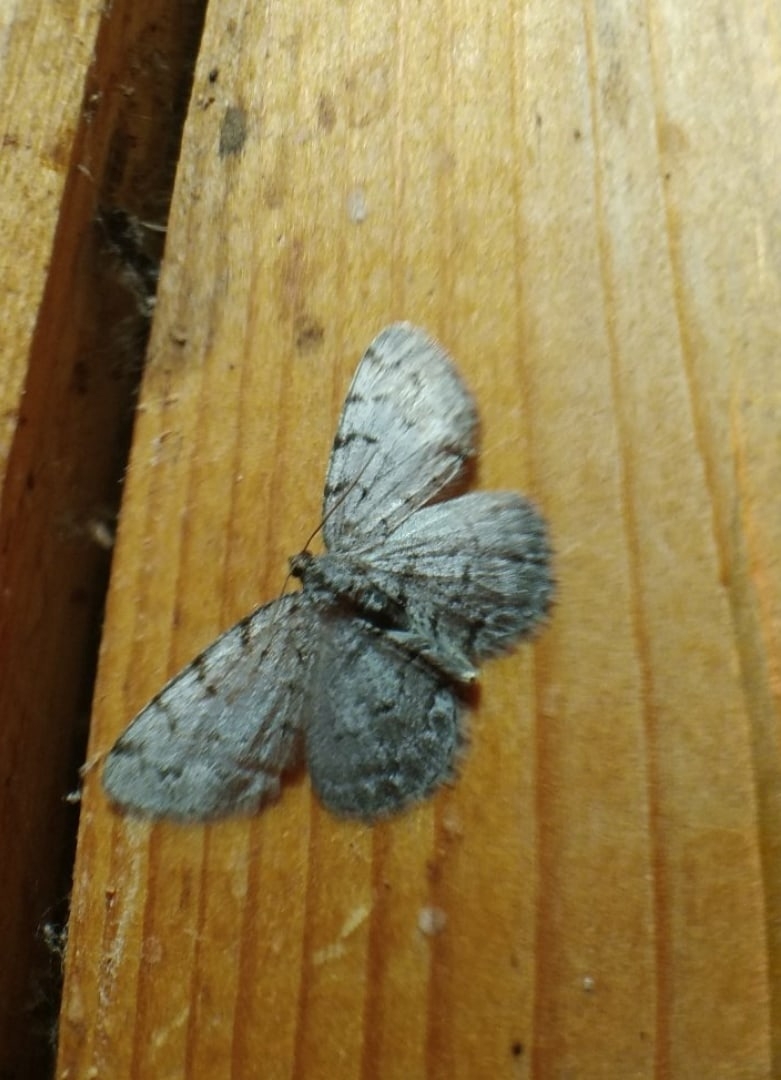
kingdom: Animalia
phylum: Arthropoda
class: Insecta
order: Lepidoptera
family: Geometridae
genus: Aethalura
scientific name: Aethalura punctulata
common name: Grey birch
